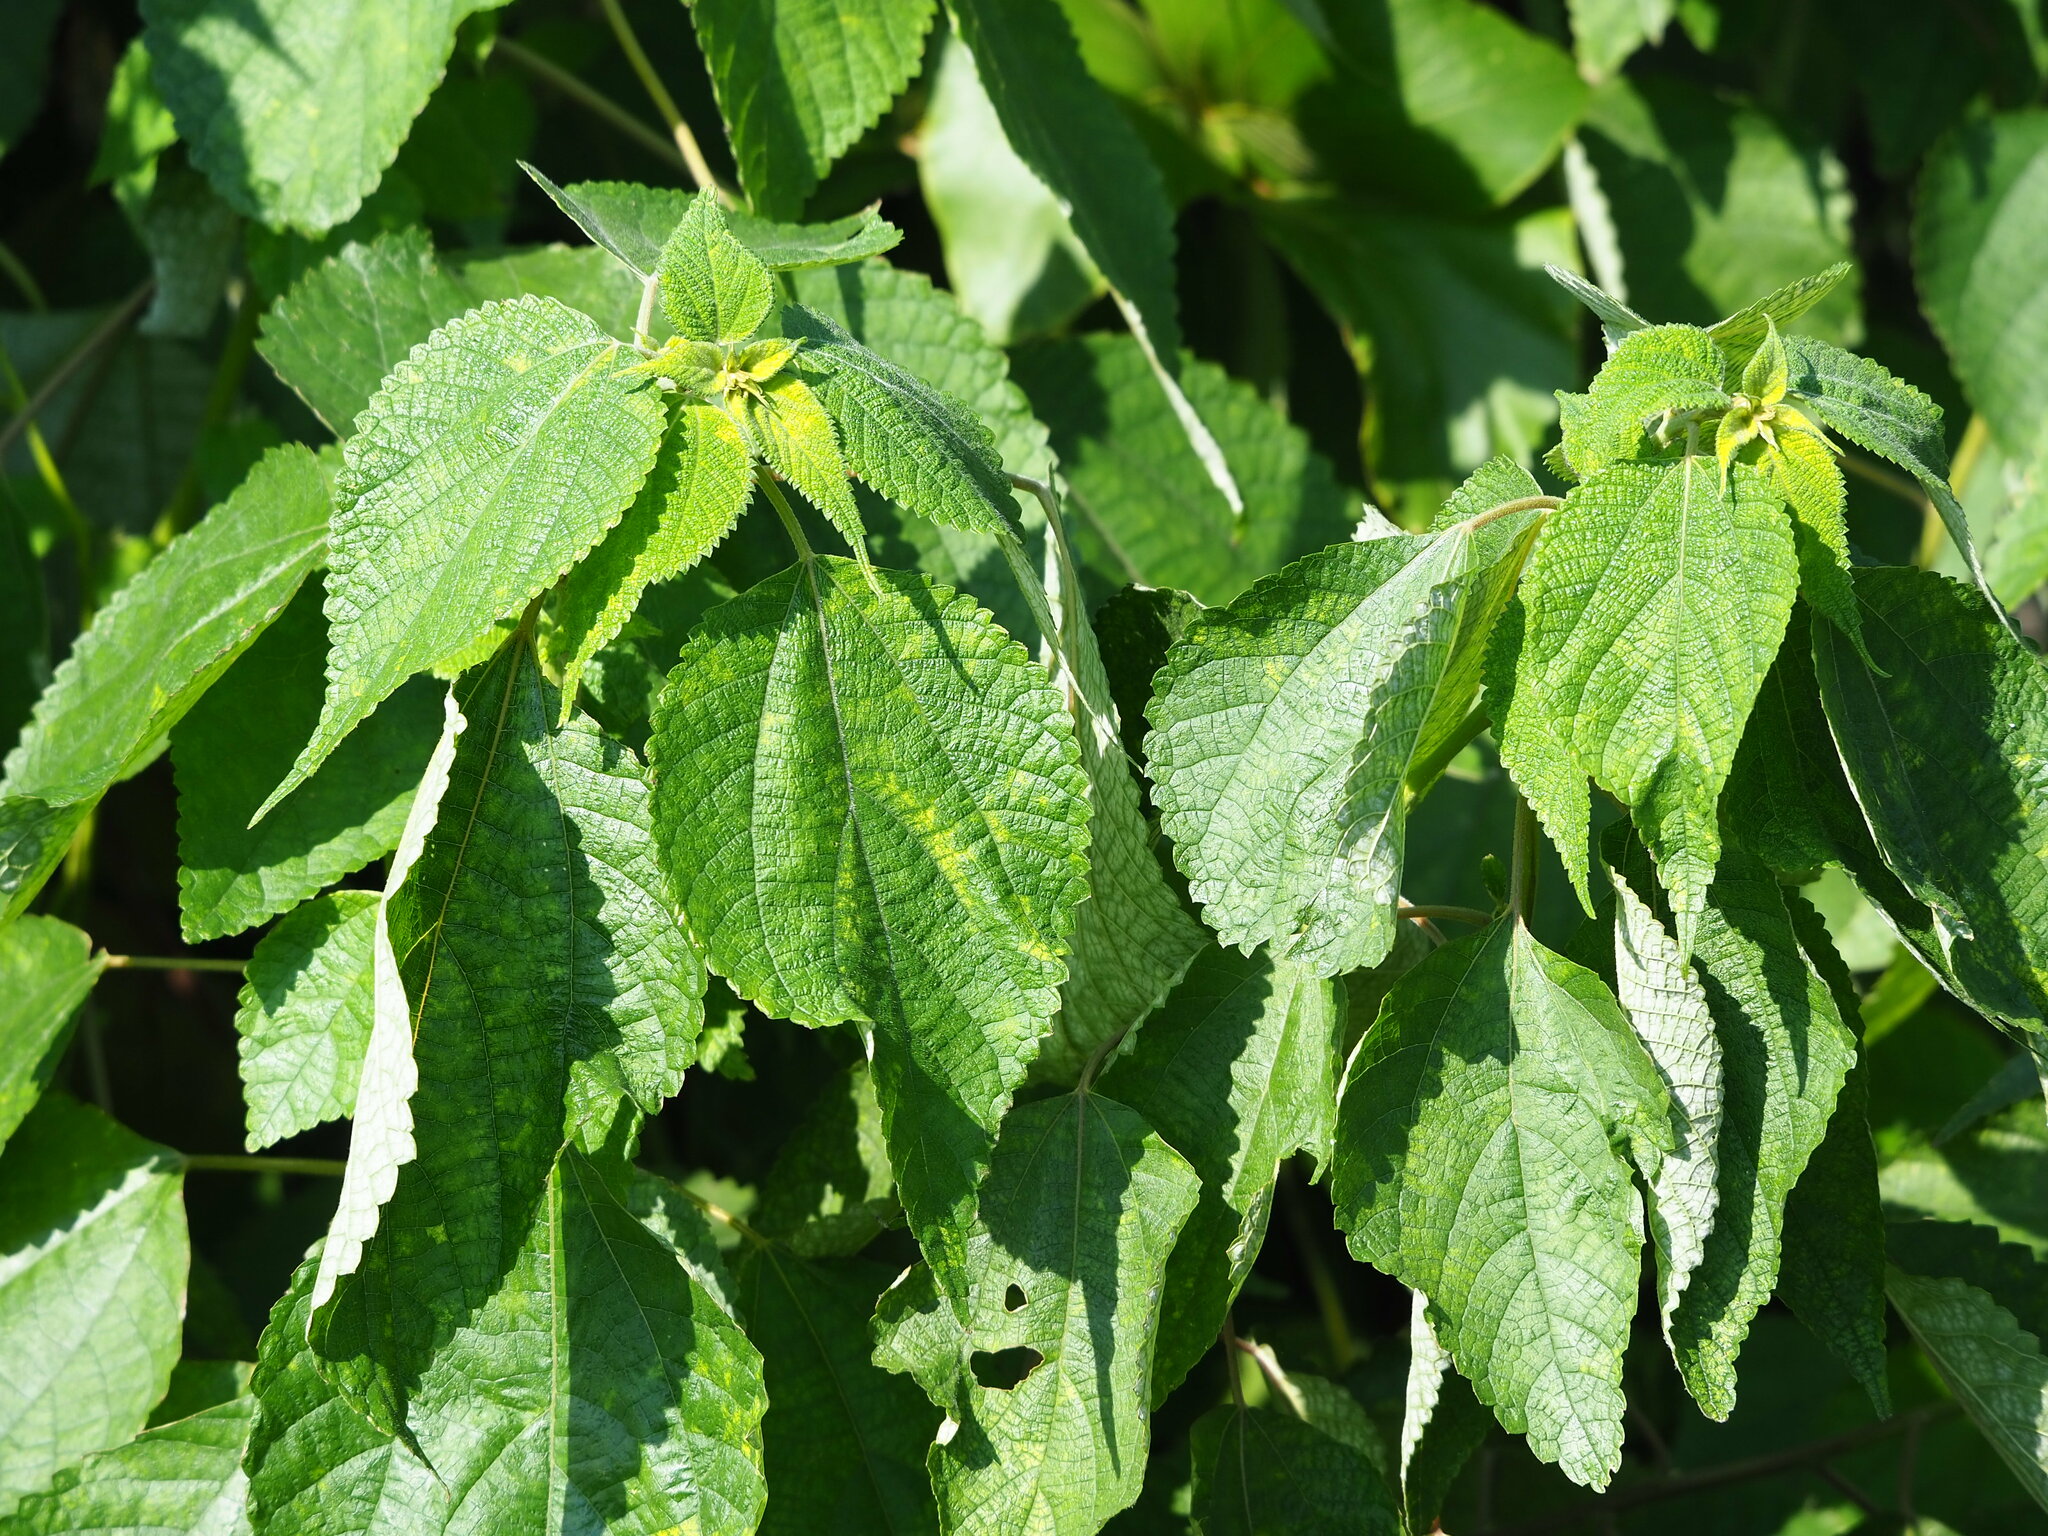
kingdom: Plantae
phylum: Tracheophyta
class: Magnoliopsida
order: Rosales
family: Urticaceae
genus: Boehmeria
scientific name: Boehmeria nivea
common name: Ramie chinese grass
